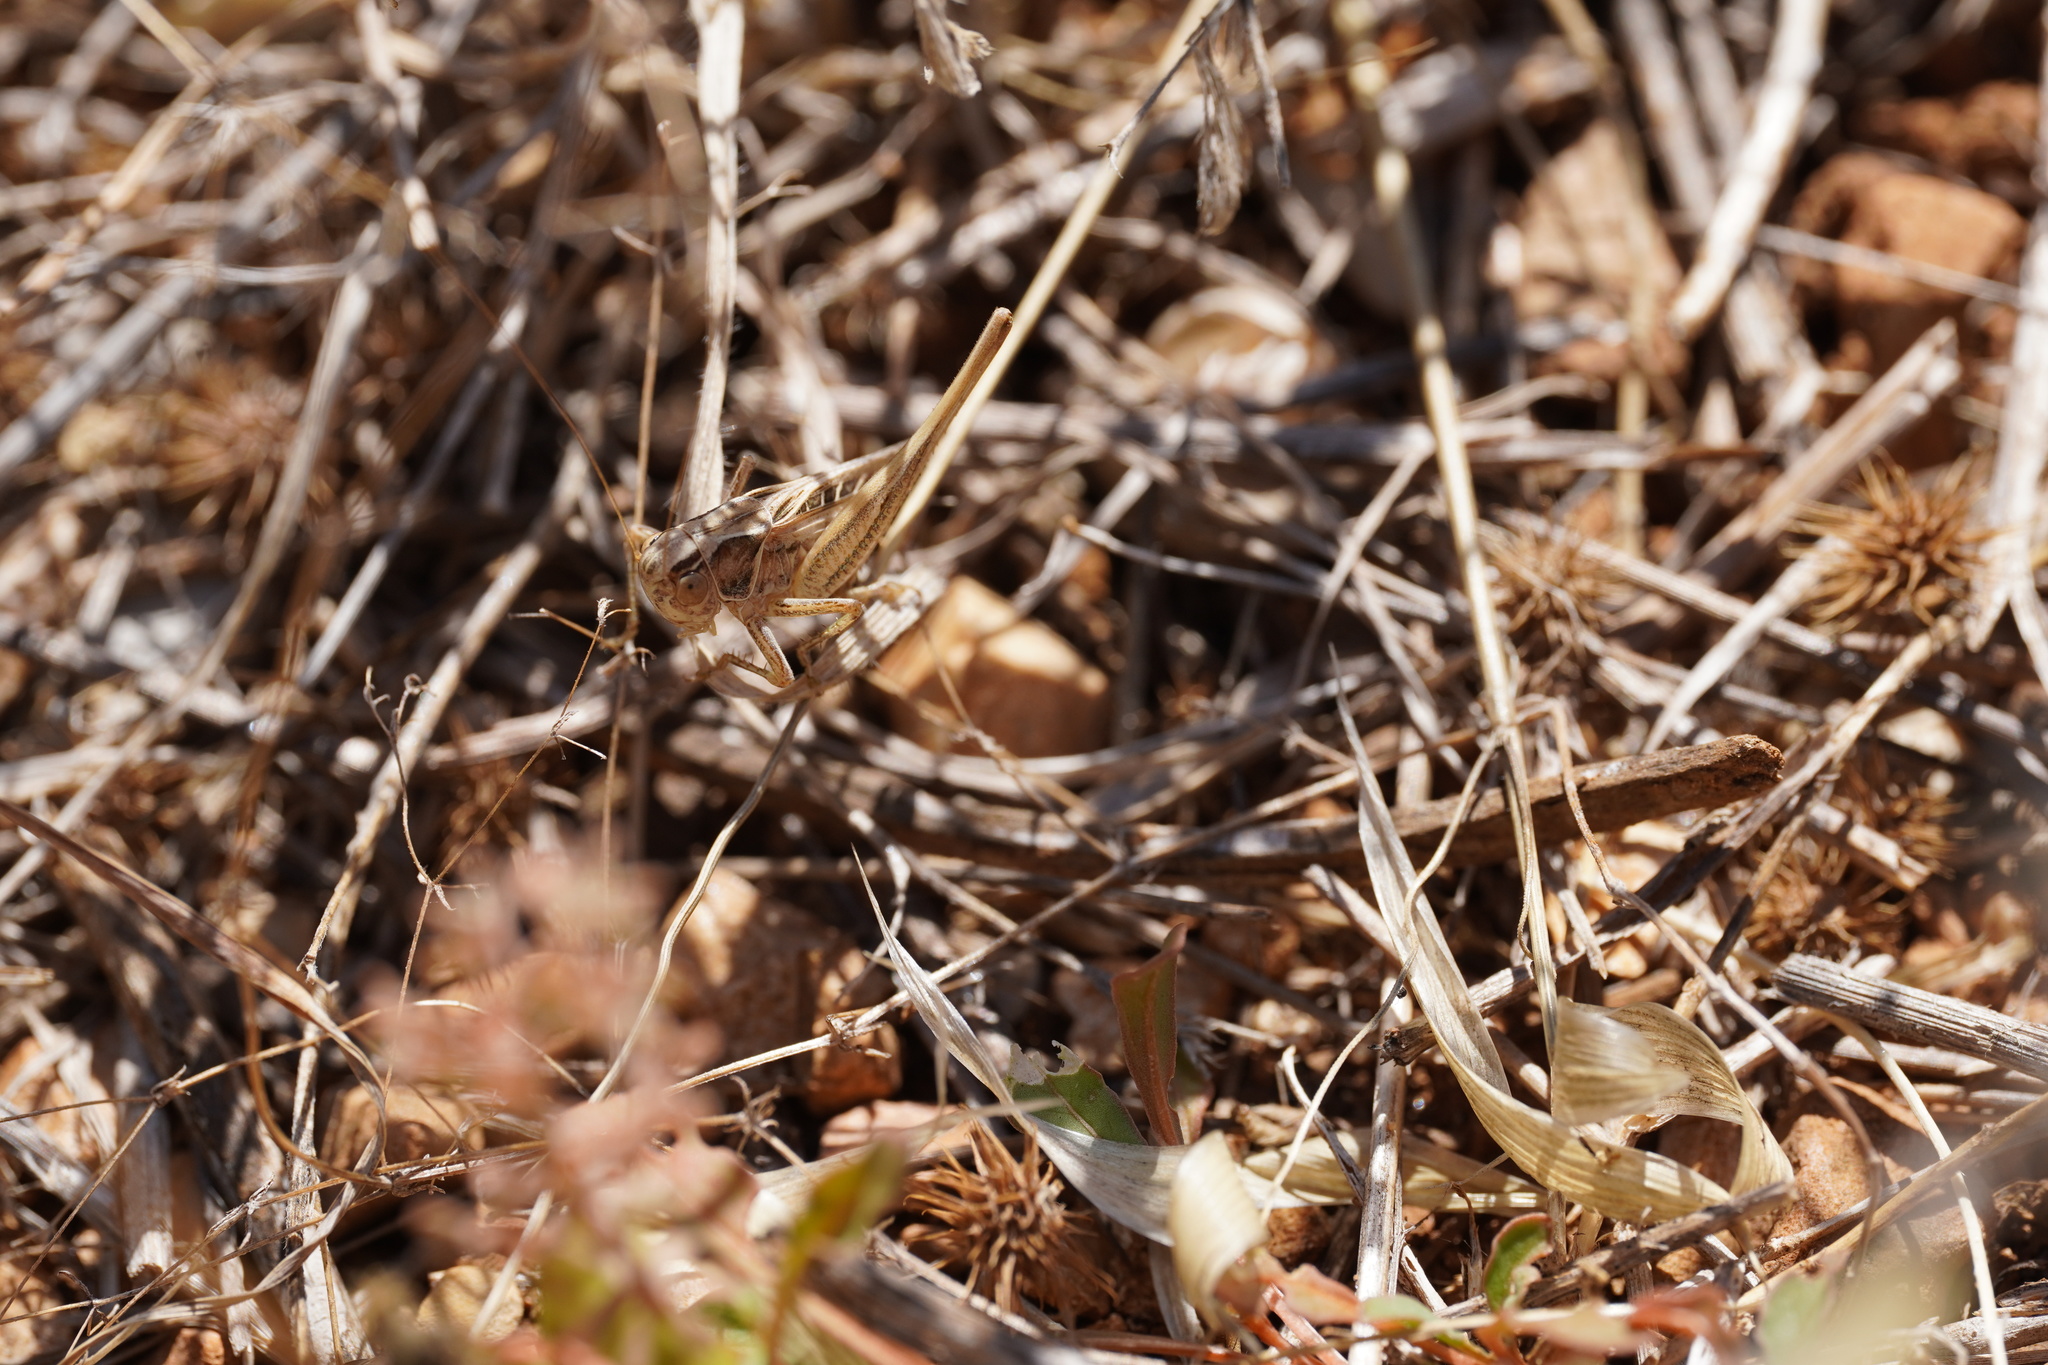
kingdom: Animalia
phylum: Arthropoda
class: Insecta
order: Orthoptera
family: Tettigoniidae
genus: Tessellana
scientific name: Tessellana tessellata
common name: Grasshopper
